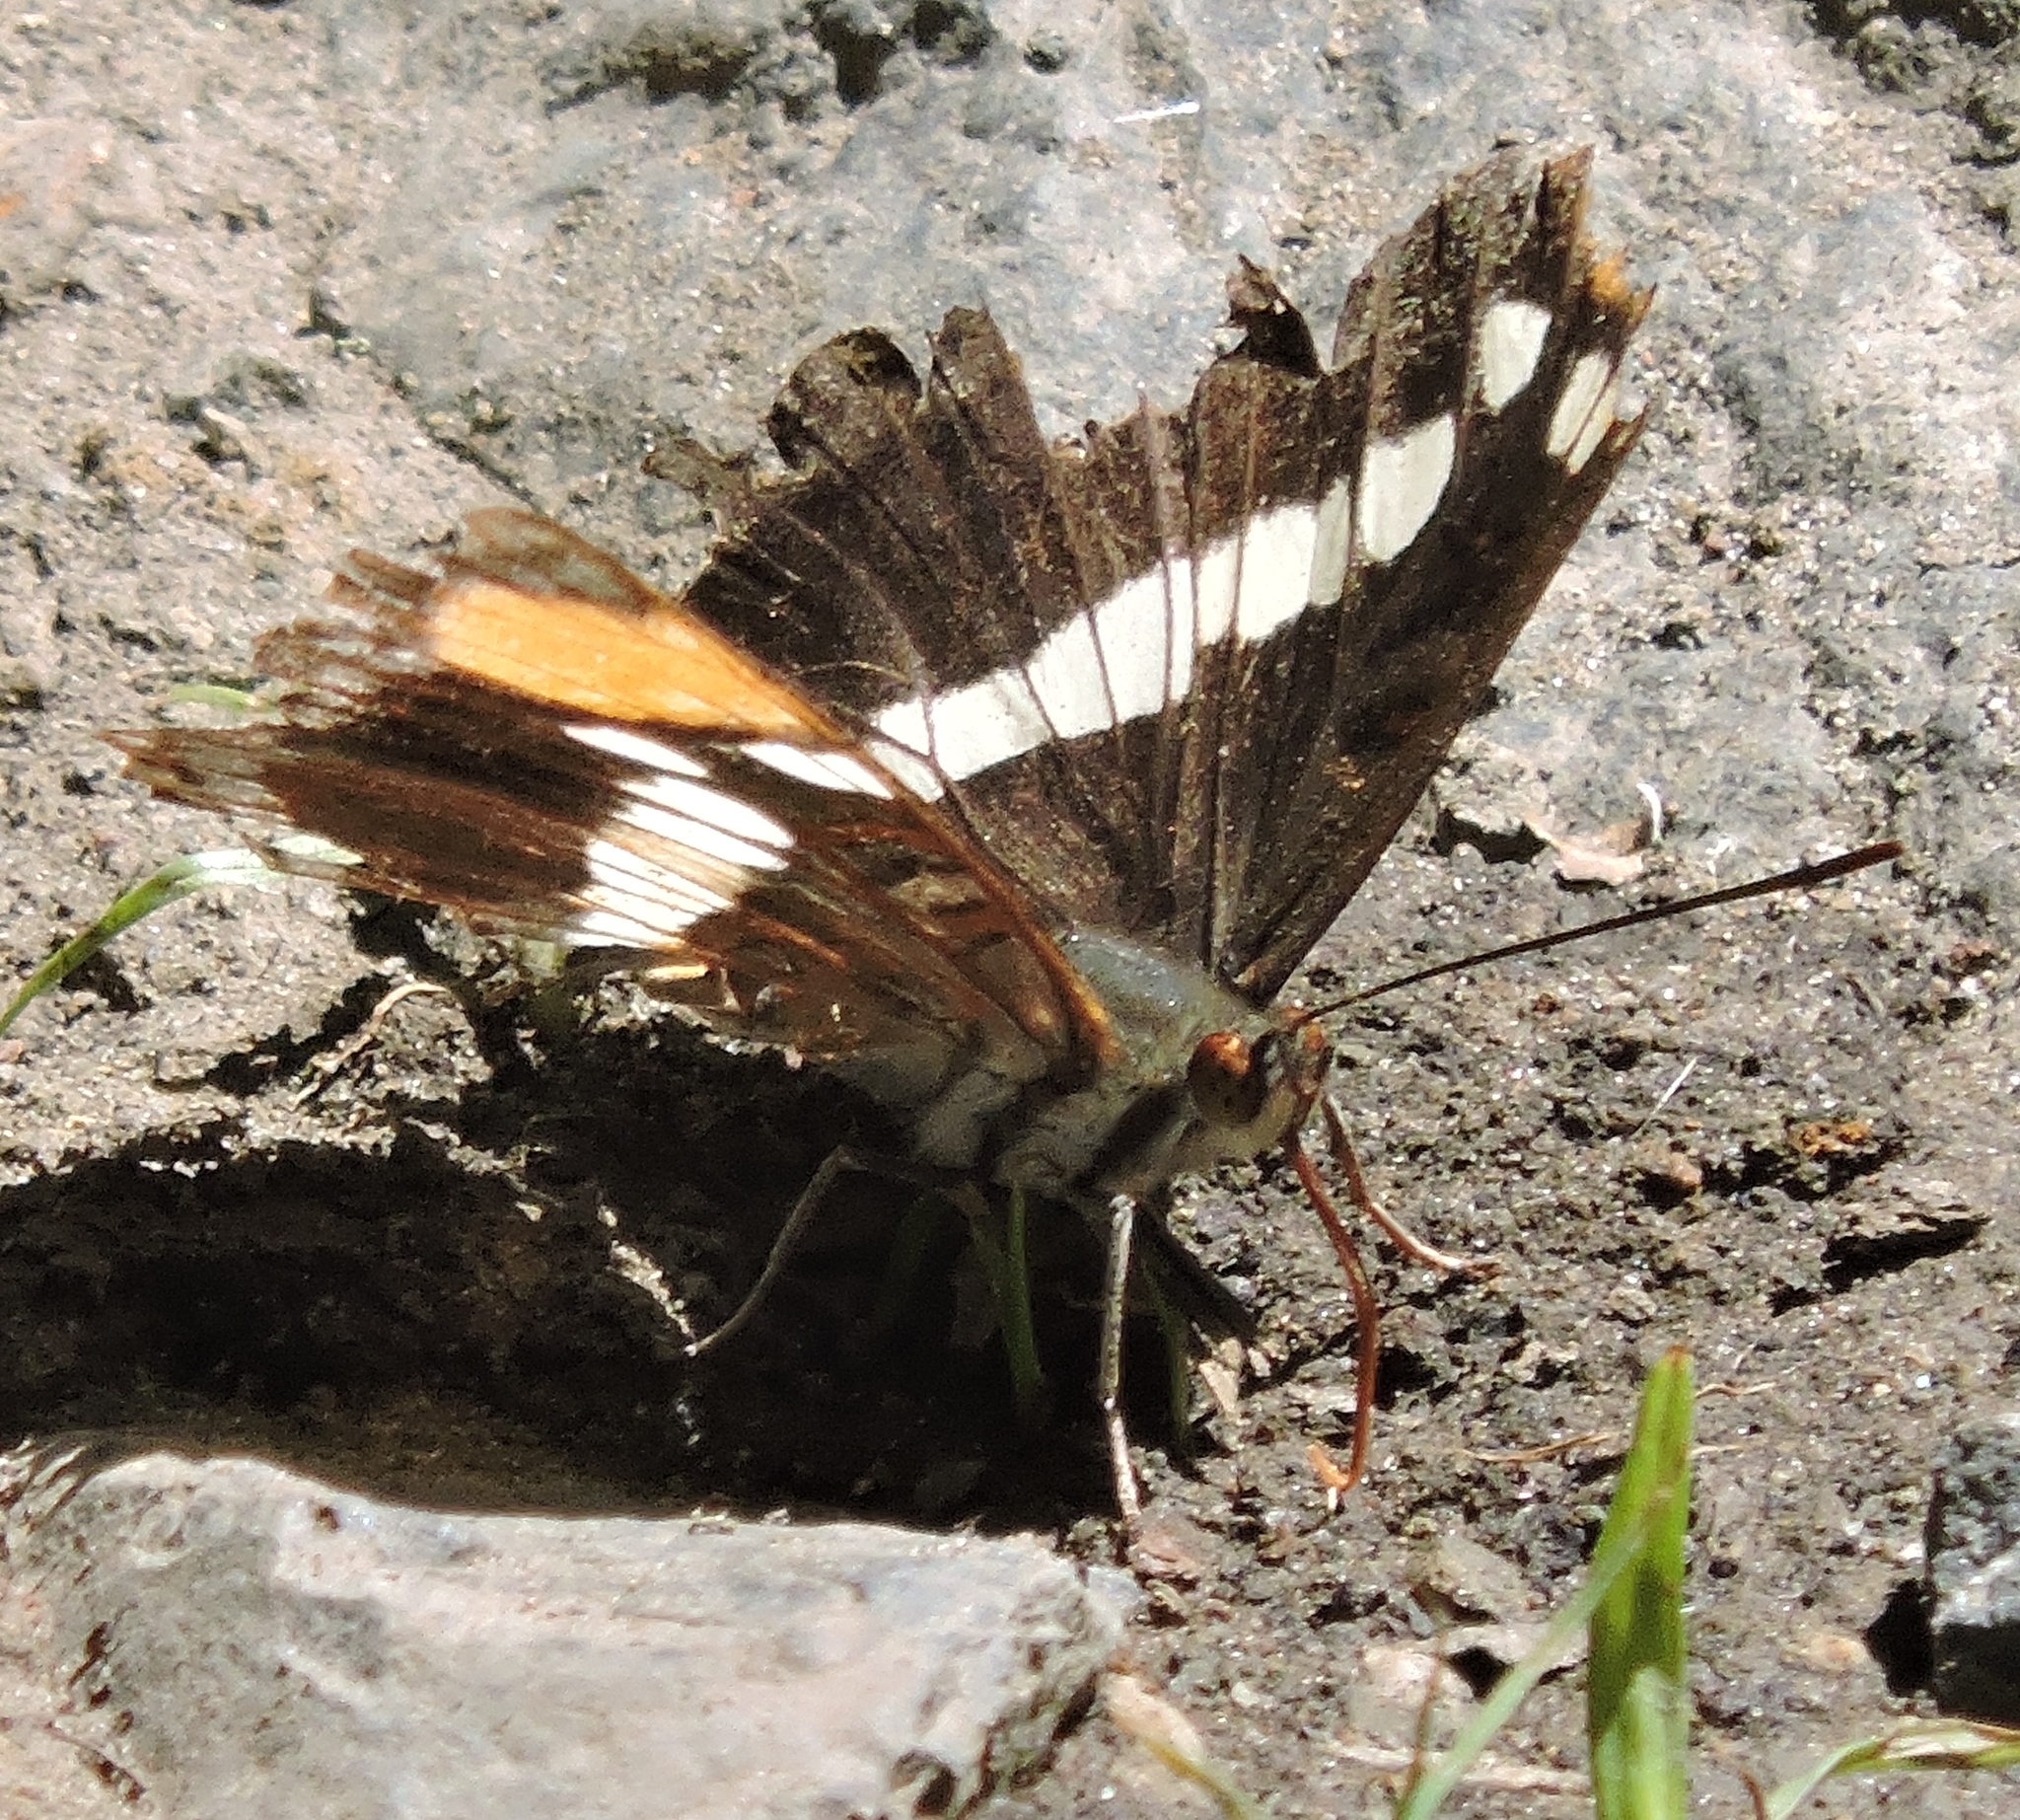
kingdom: Animalia
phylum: Arthropoda
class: Insecta
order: Lepidoptera
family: Nymphalidae
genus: Limenitis
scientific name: Limenitis bredowii
